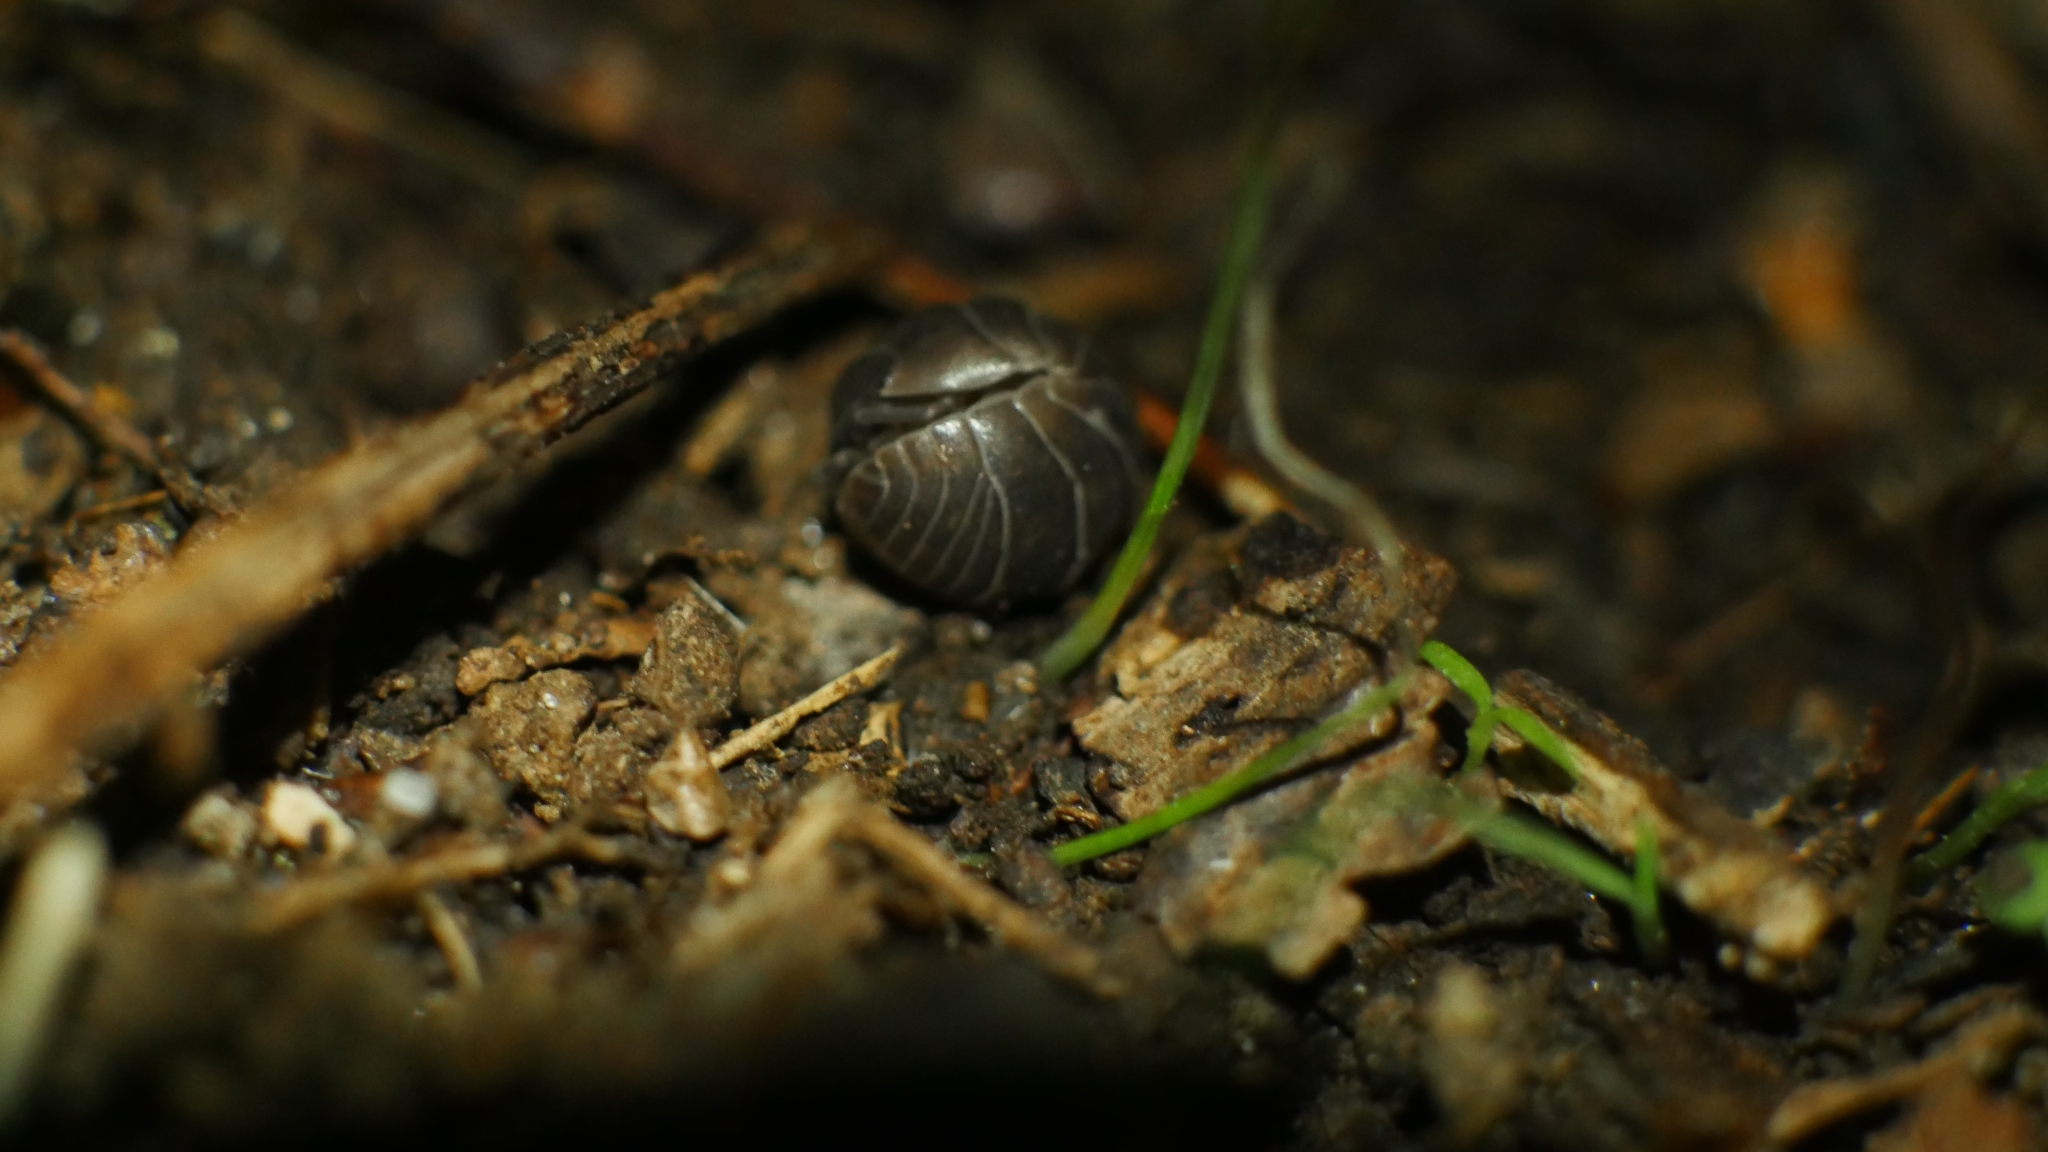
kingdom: Animalia
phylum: Arthropoda
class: Malacostraca
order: Isopoda
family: Armadillidiidae
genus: Armadillidium
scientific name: Armadillidium vulgare
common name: Common pill woodlouse
